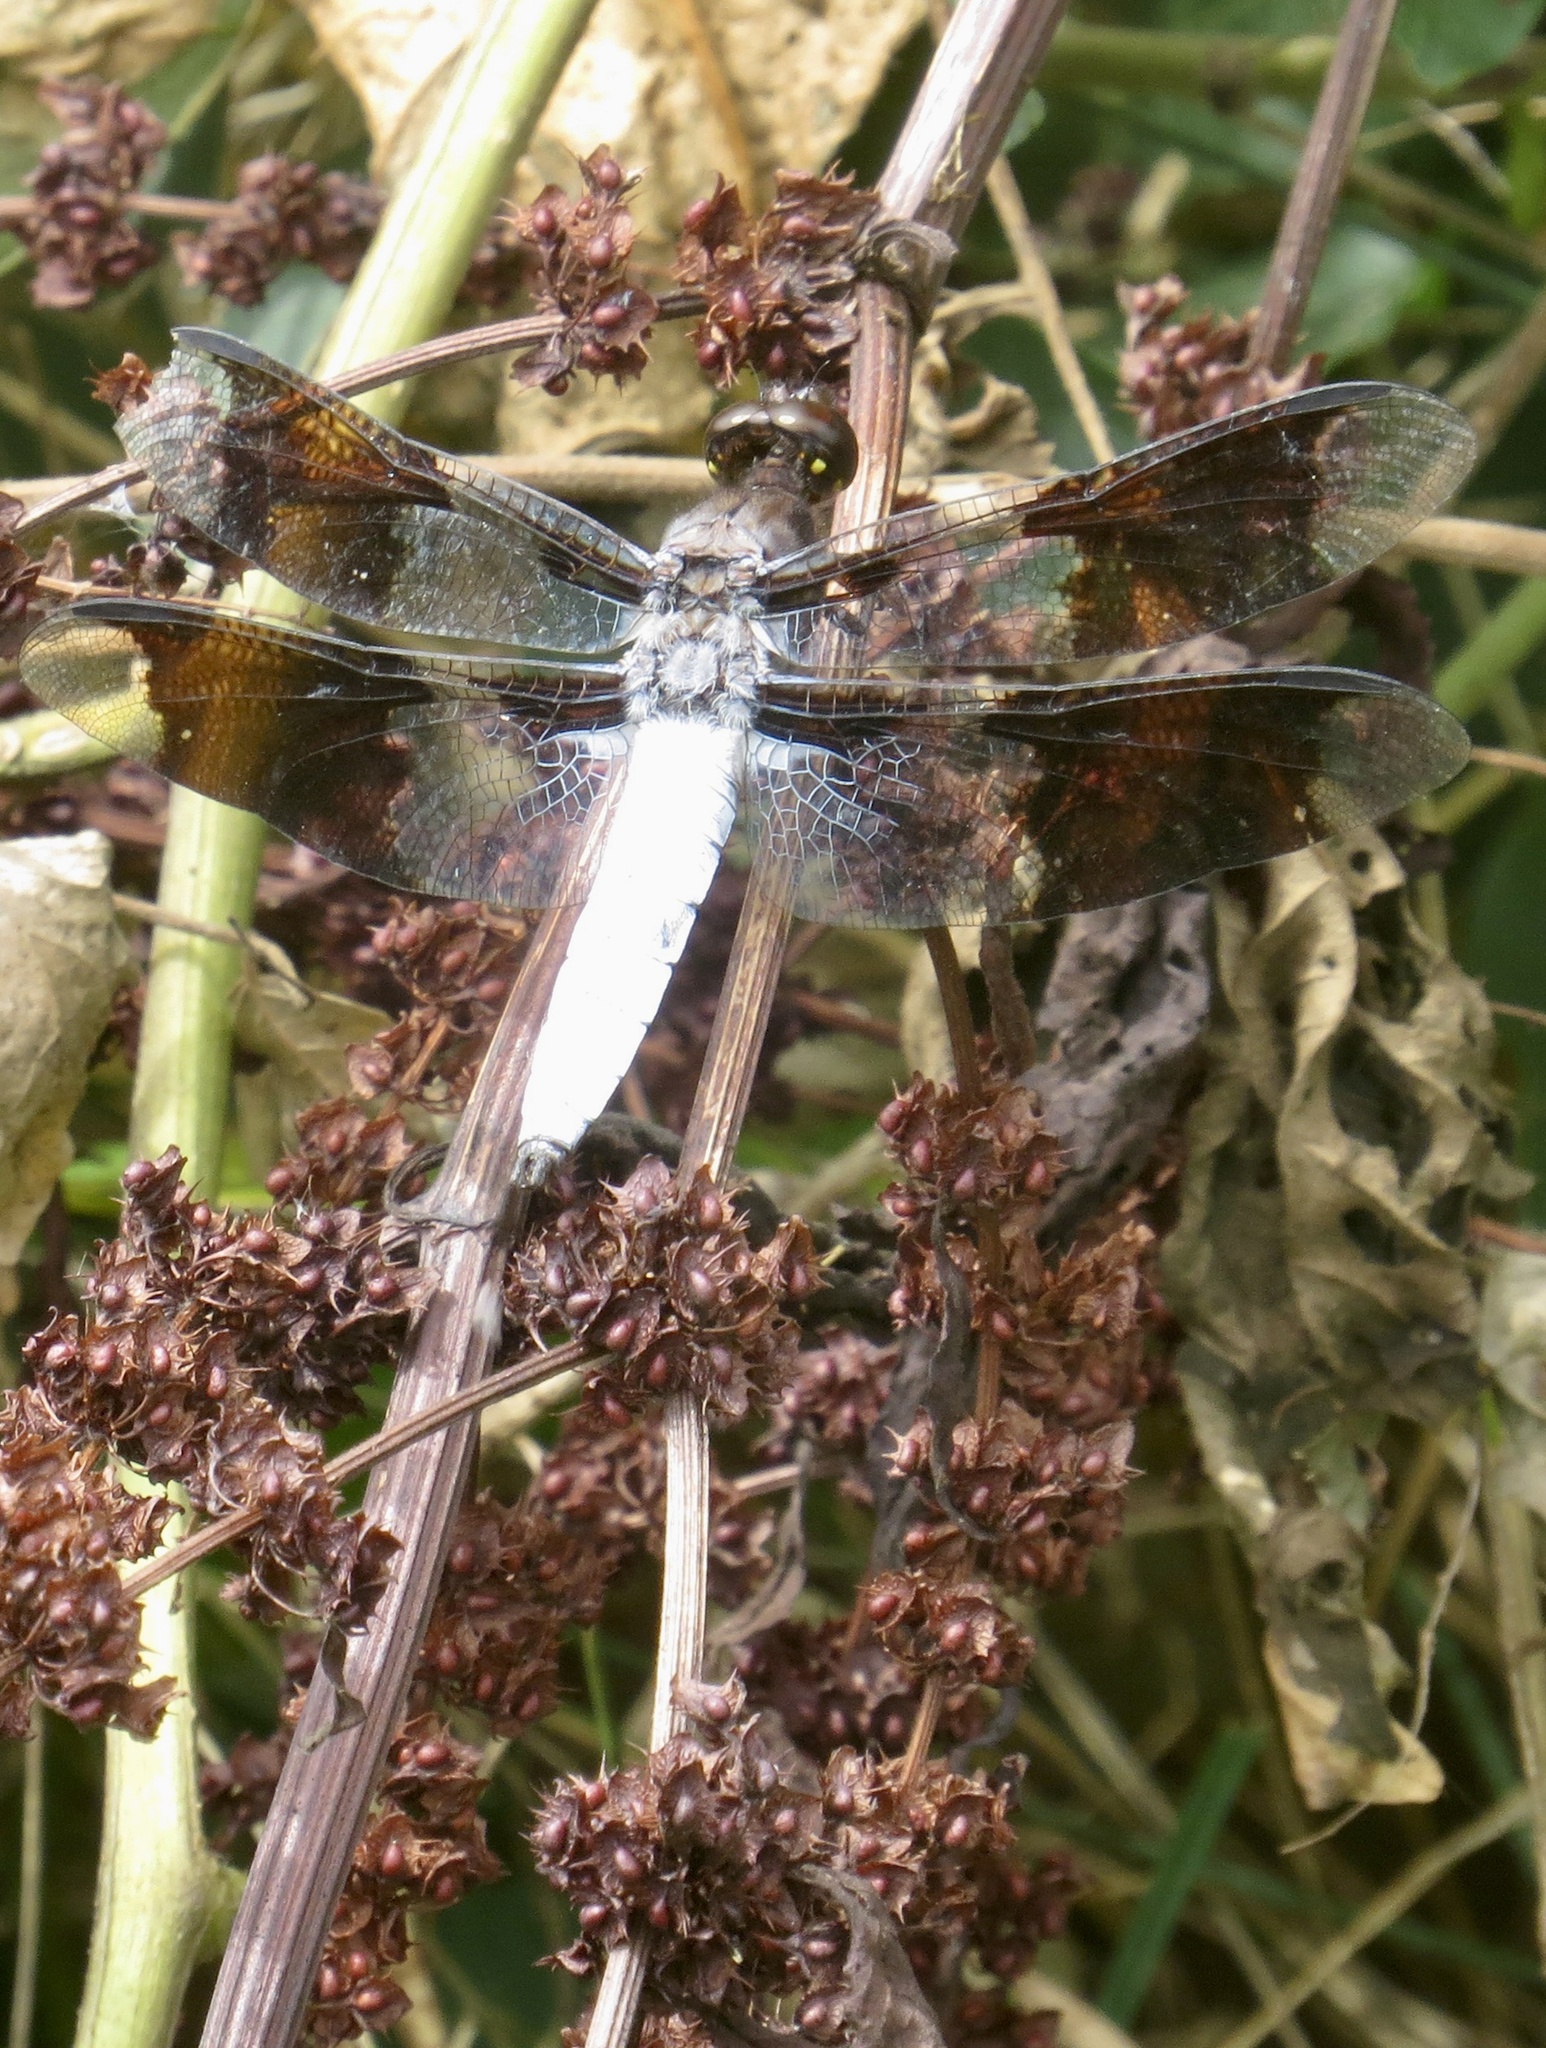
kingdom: Animalia
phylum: Arthropoda
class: Insecta
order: Odonata
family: Libellulidae
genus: Plathemis
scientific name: Plathemis lydia
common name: Common whitetail
